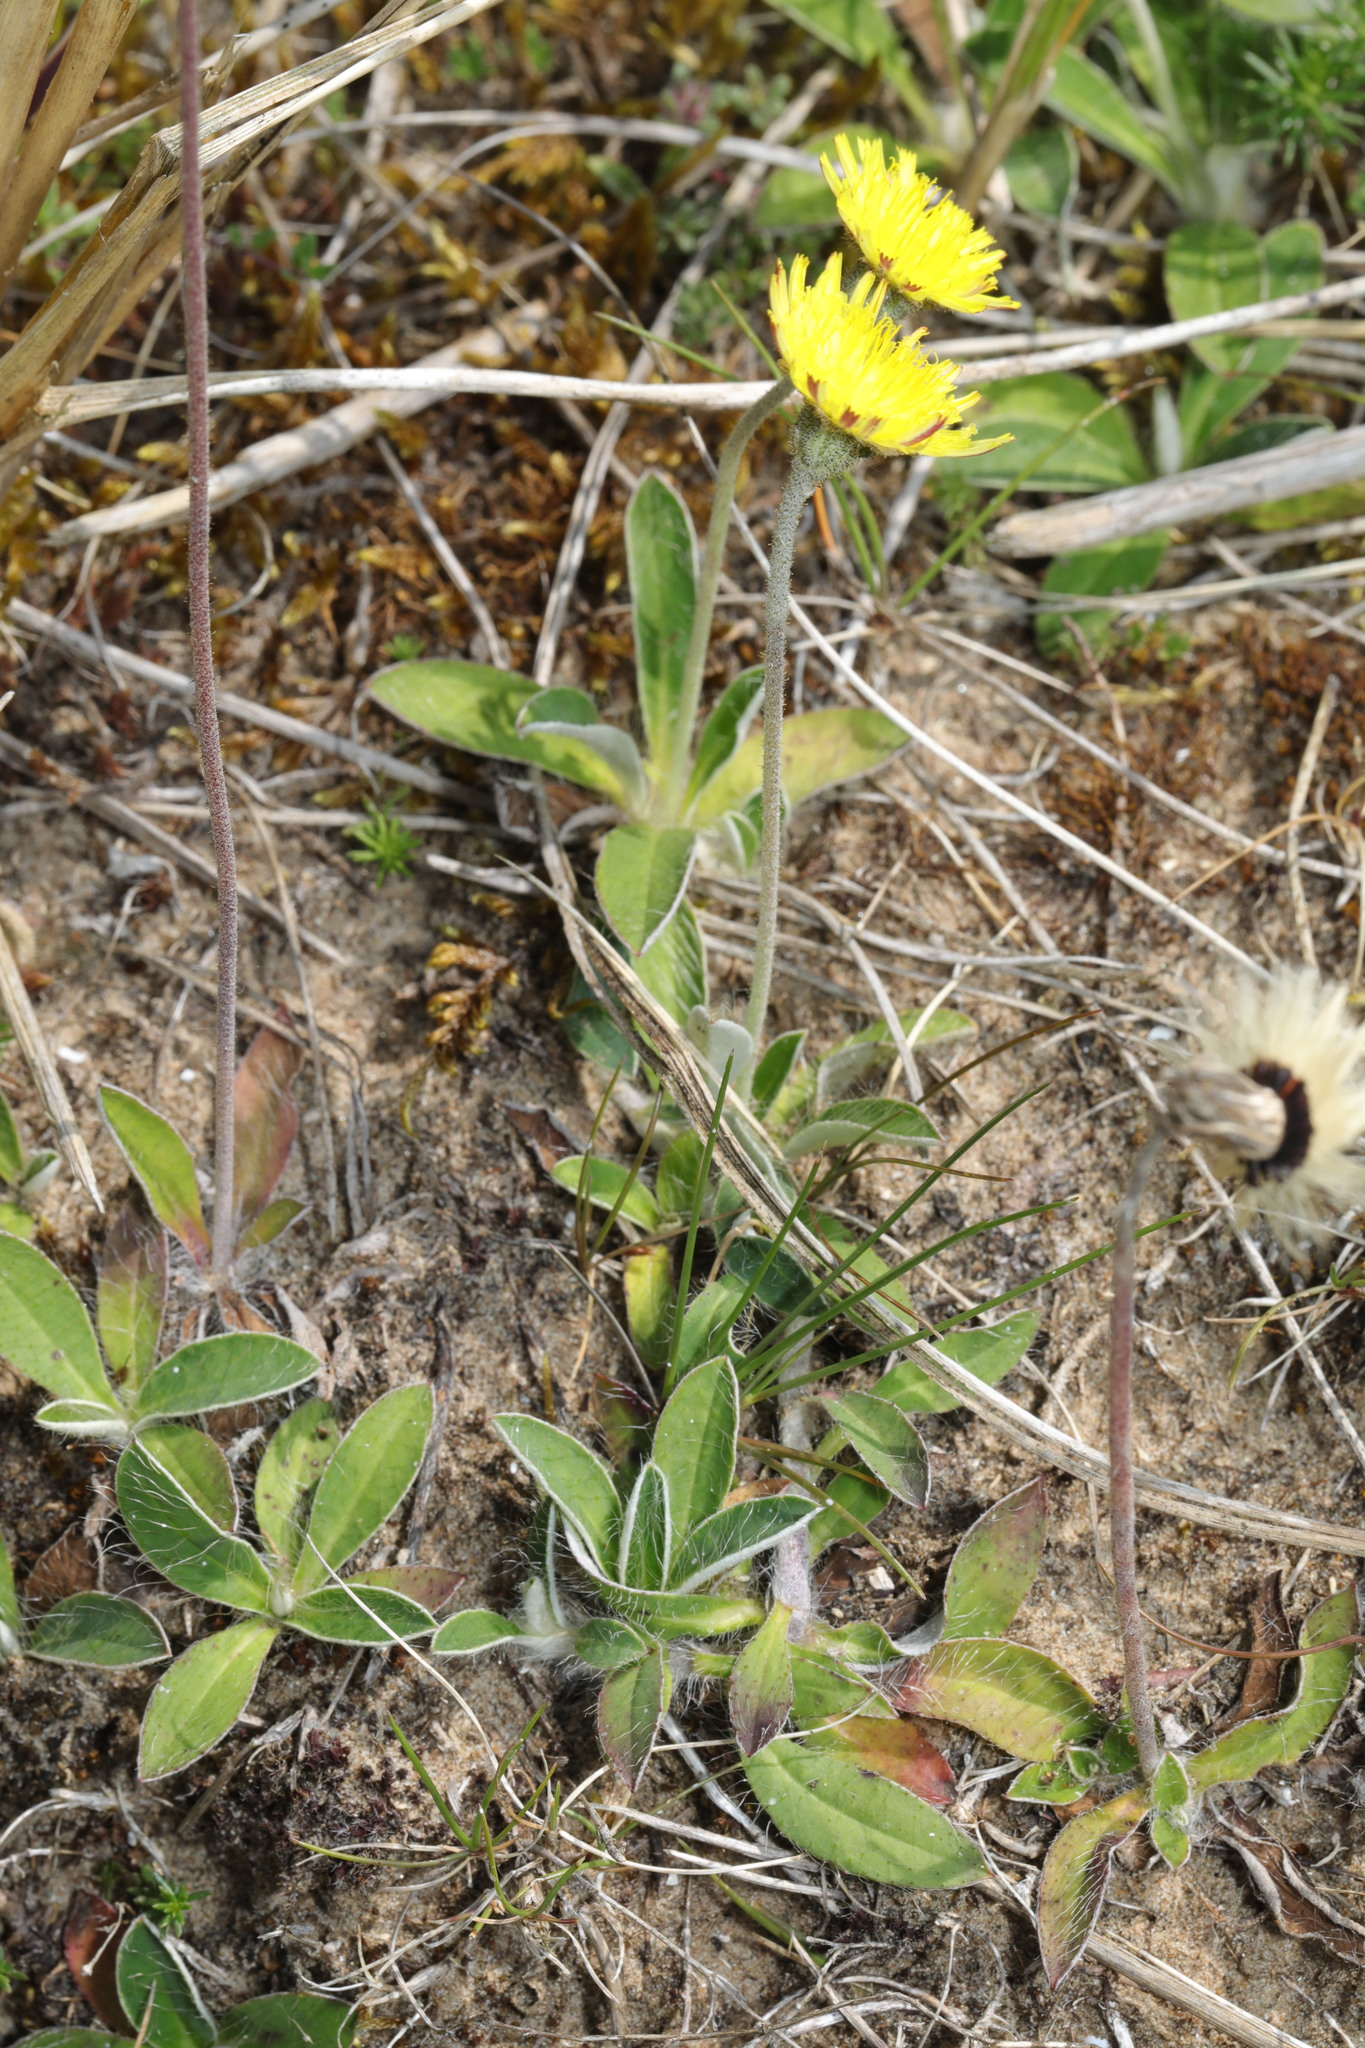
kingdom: Plantae
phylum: Tracheophyta
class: Magnoliopsida
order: Asterales
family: Asteraceae
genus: Pilosella
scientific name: Pilosella officinarum
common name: Mouse-ear hawkweed
